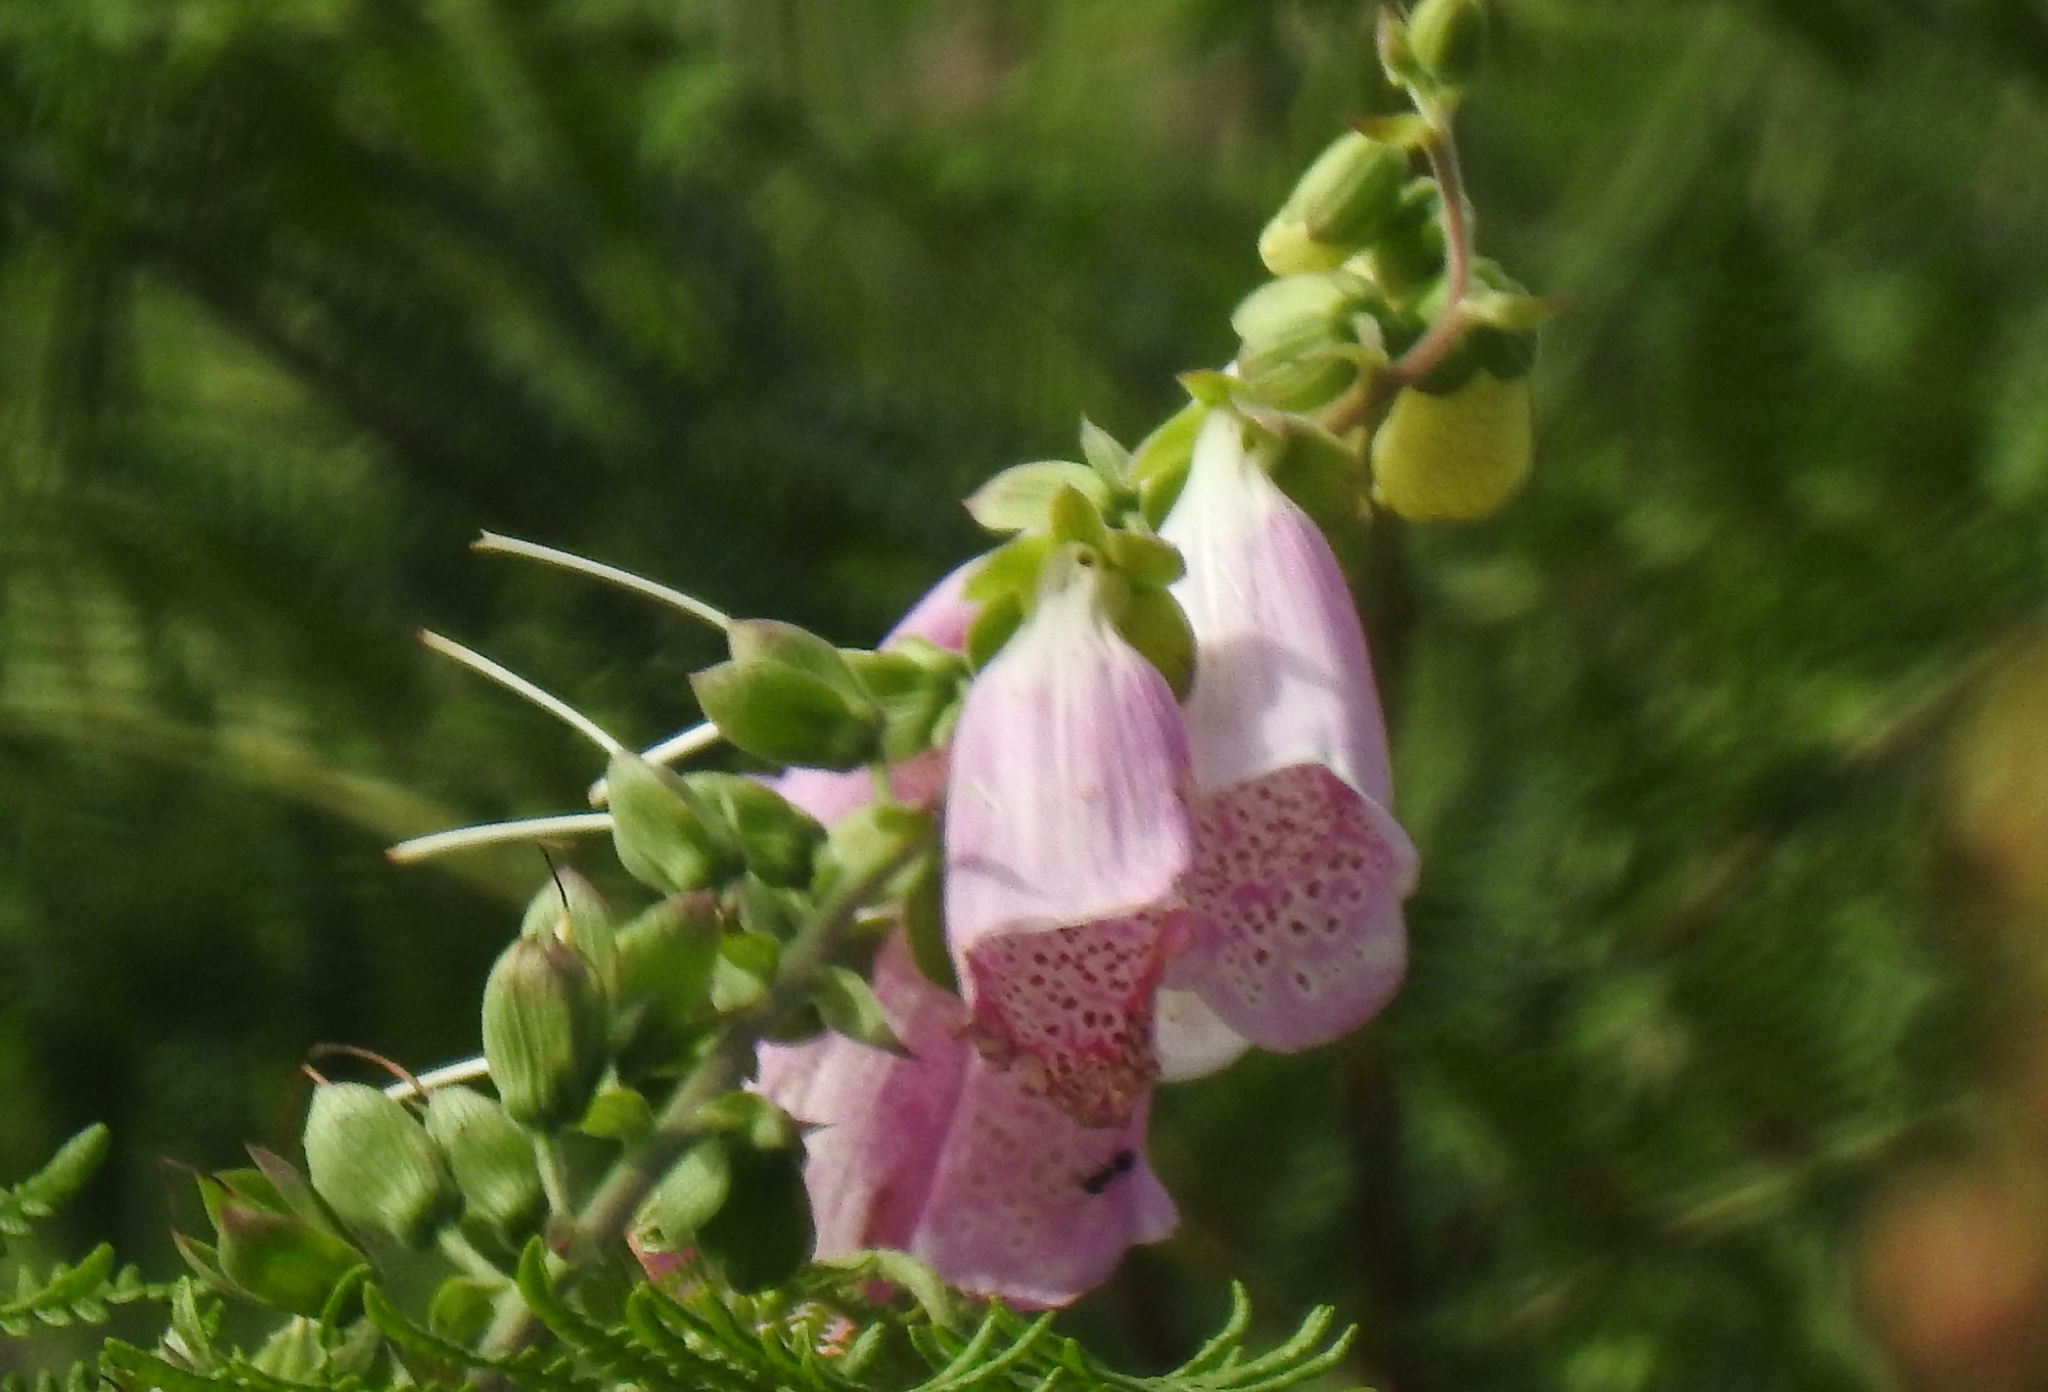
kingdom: Plantae
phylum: Tracheophyta
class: Magnoliopsida
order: Lamiales
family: Plantaginaceae
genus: Digitalis
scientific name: Digitalis purpurea
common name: Foxglove
